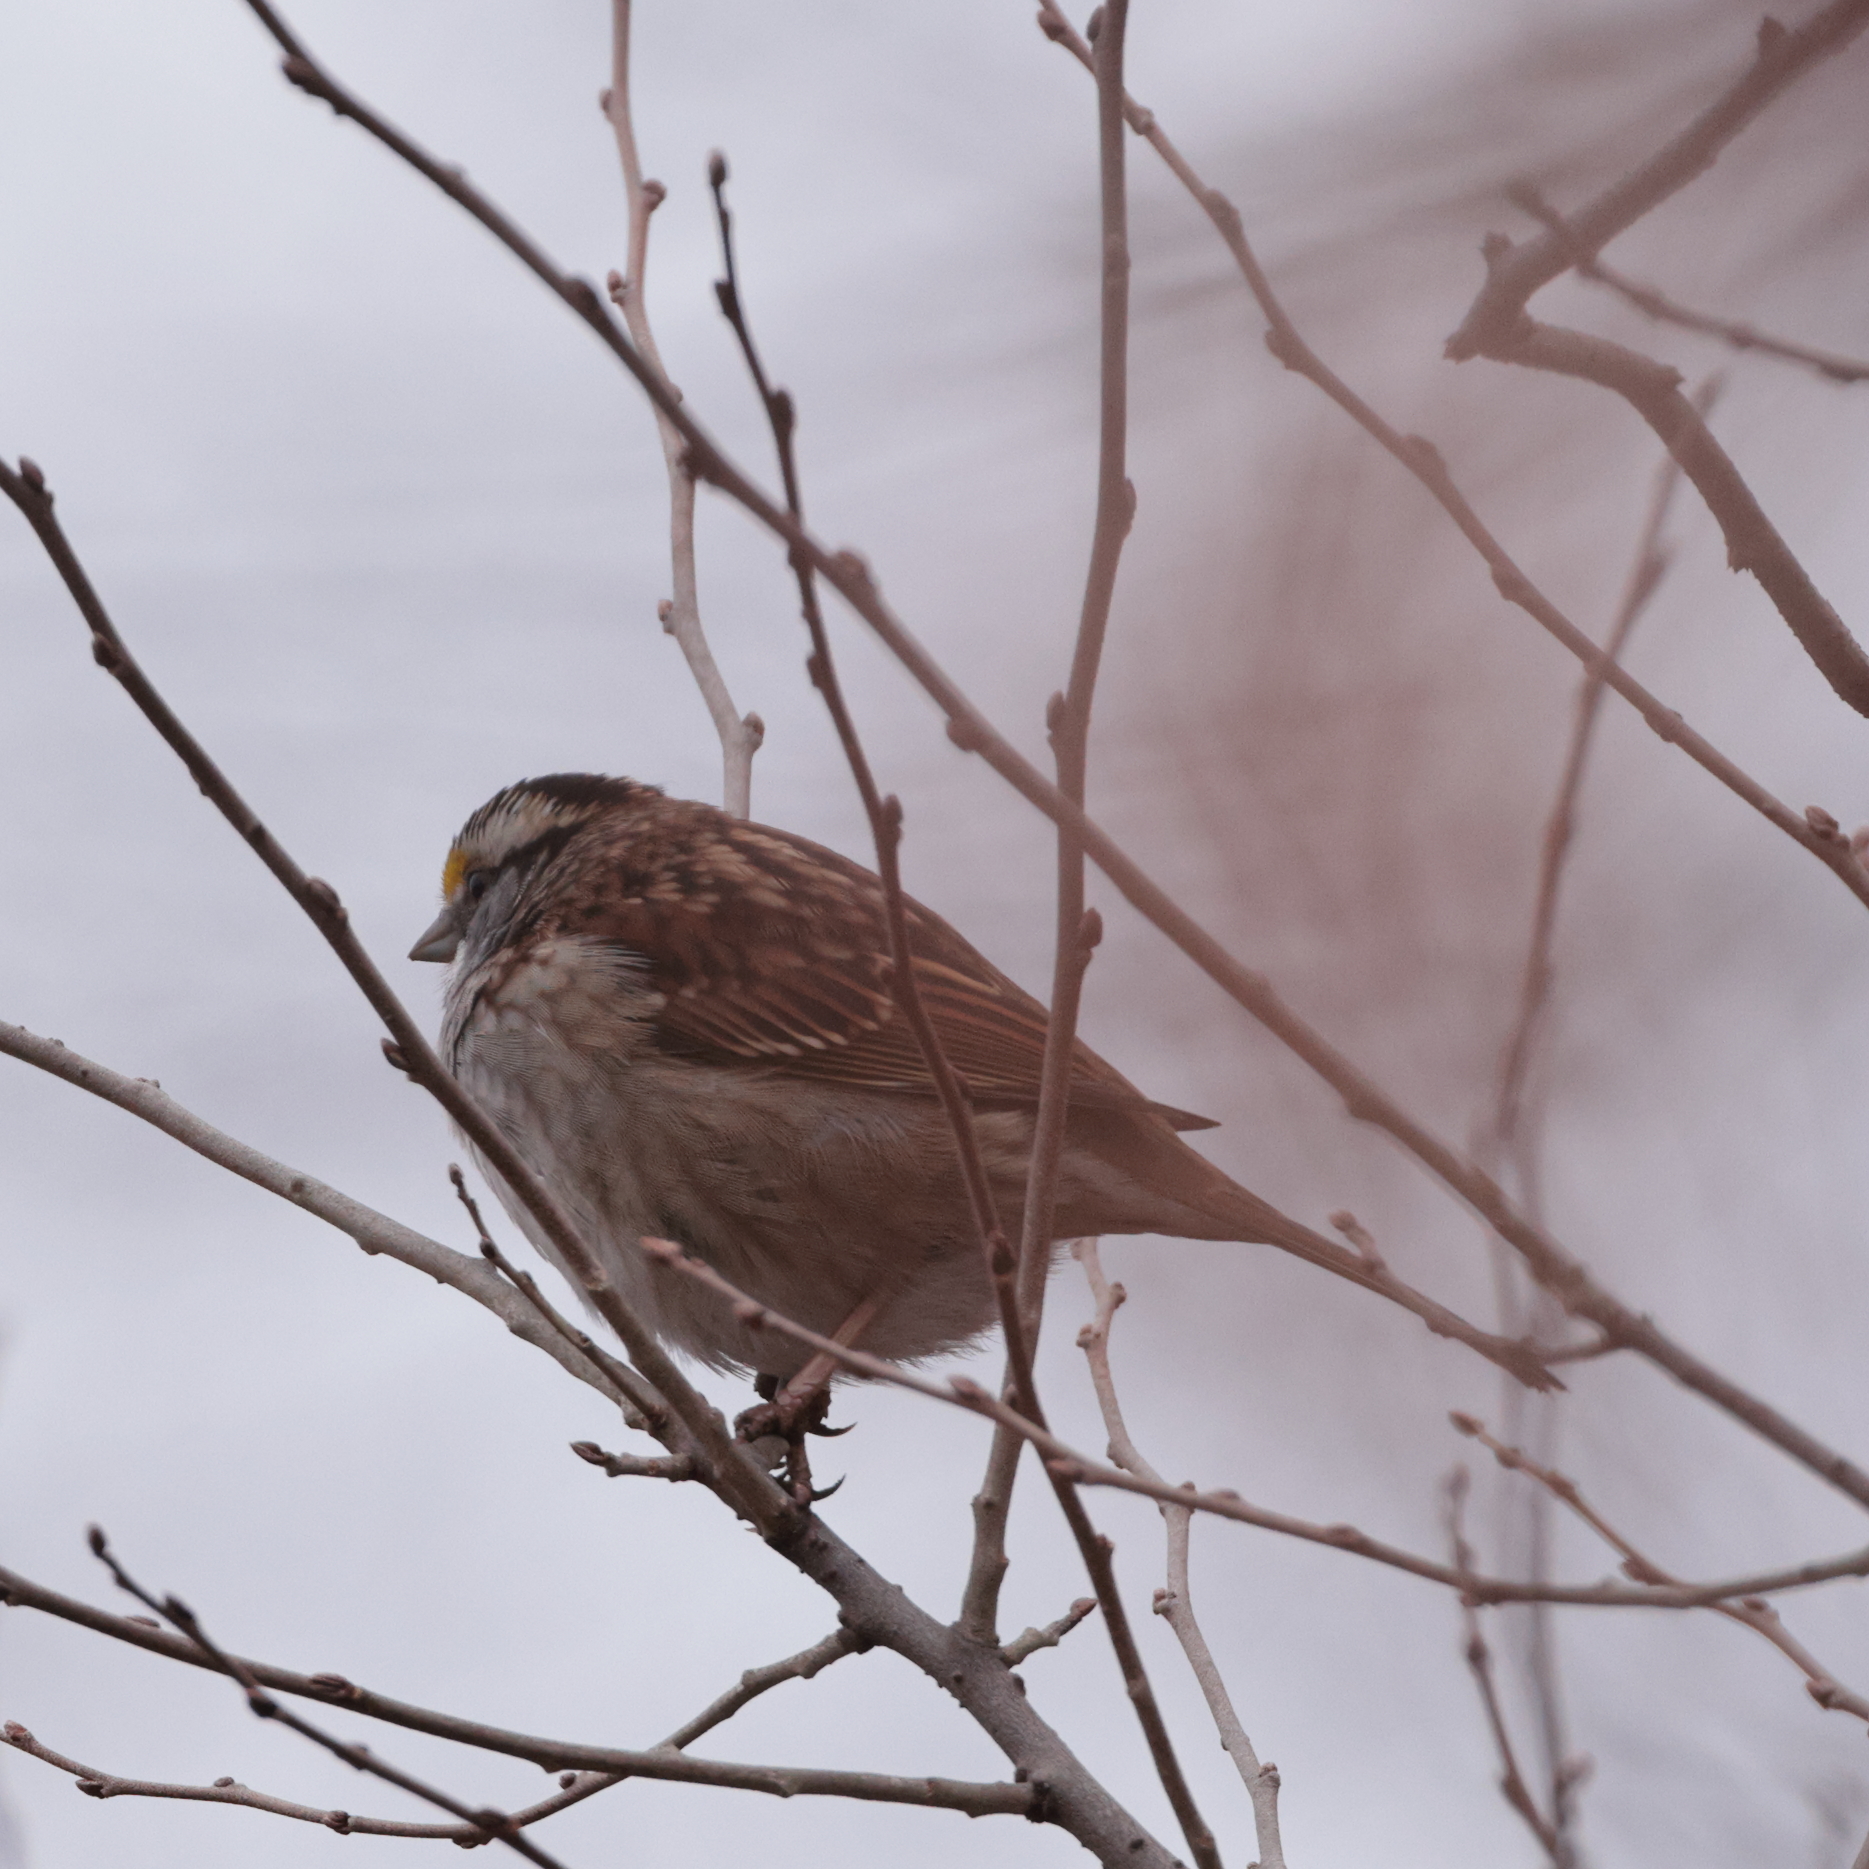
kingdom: Animalia
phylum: Chordata
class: Aves
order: Passeriformes
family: Passerellidae
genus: Zonotrichia
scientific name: Zonotrichia albicollis
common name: White-throated sparrow
